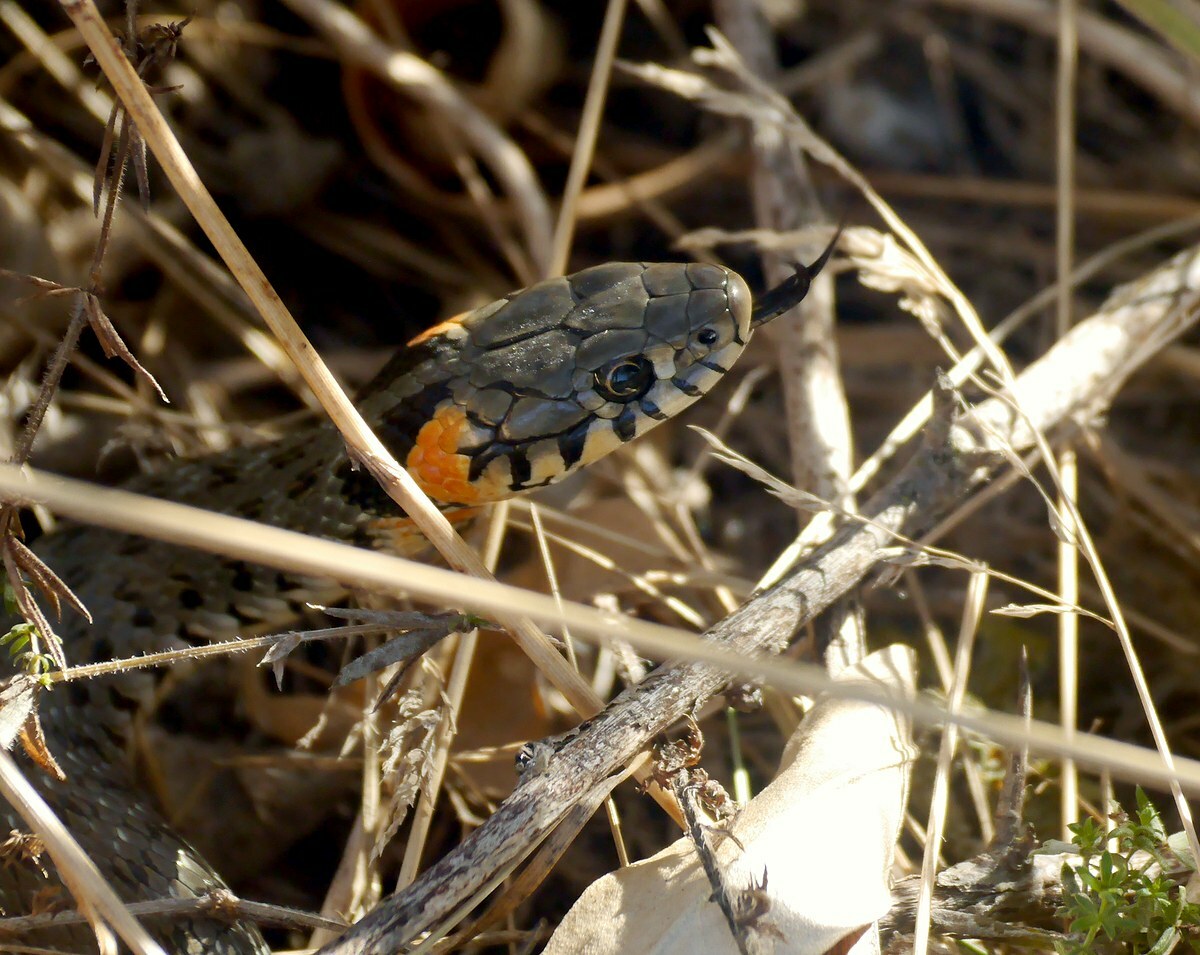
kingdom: Animalia
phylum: Chordata
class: Squamata
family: Colubridae
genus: Natrix
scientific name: Natrix natrix
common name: Grass snake
